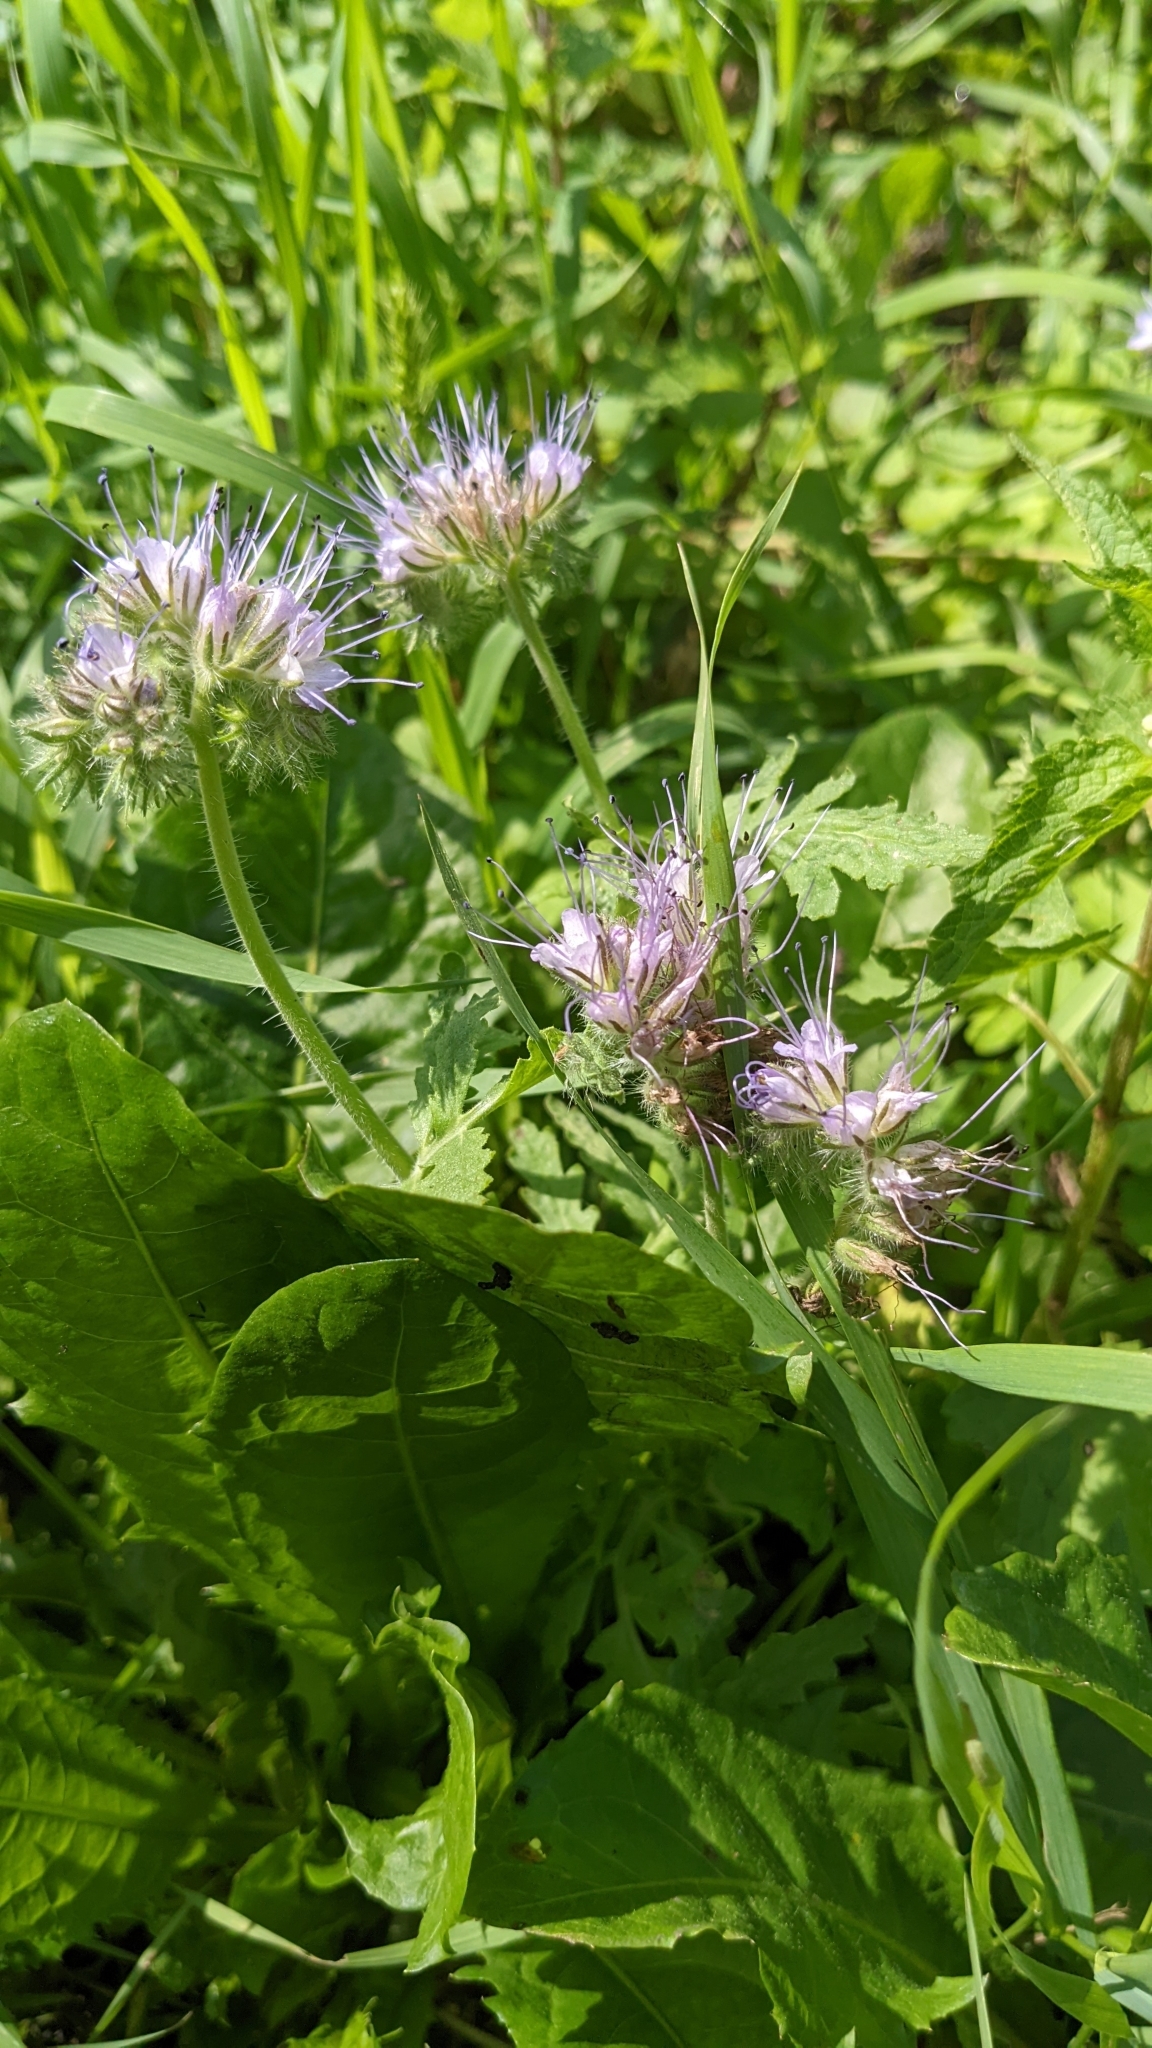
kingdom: Plantae
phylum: Tracheophyta
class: Magnoliopsida
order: Boraginales
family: Hydrophyllaceae
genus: Phacelia
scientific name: Phacelia tanacetifolia
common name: Phacelia
